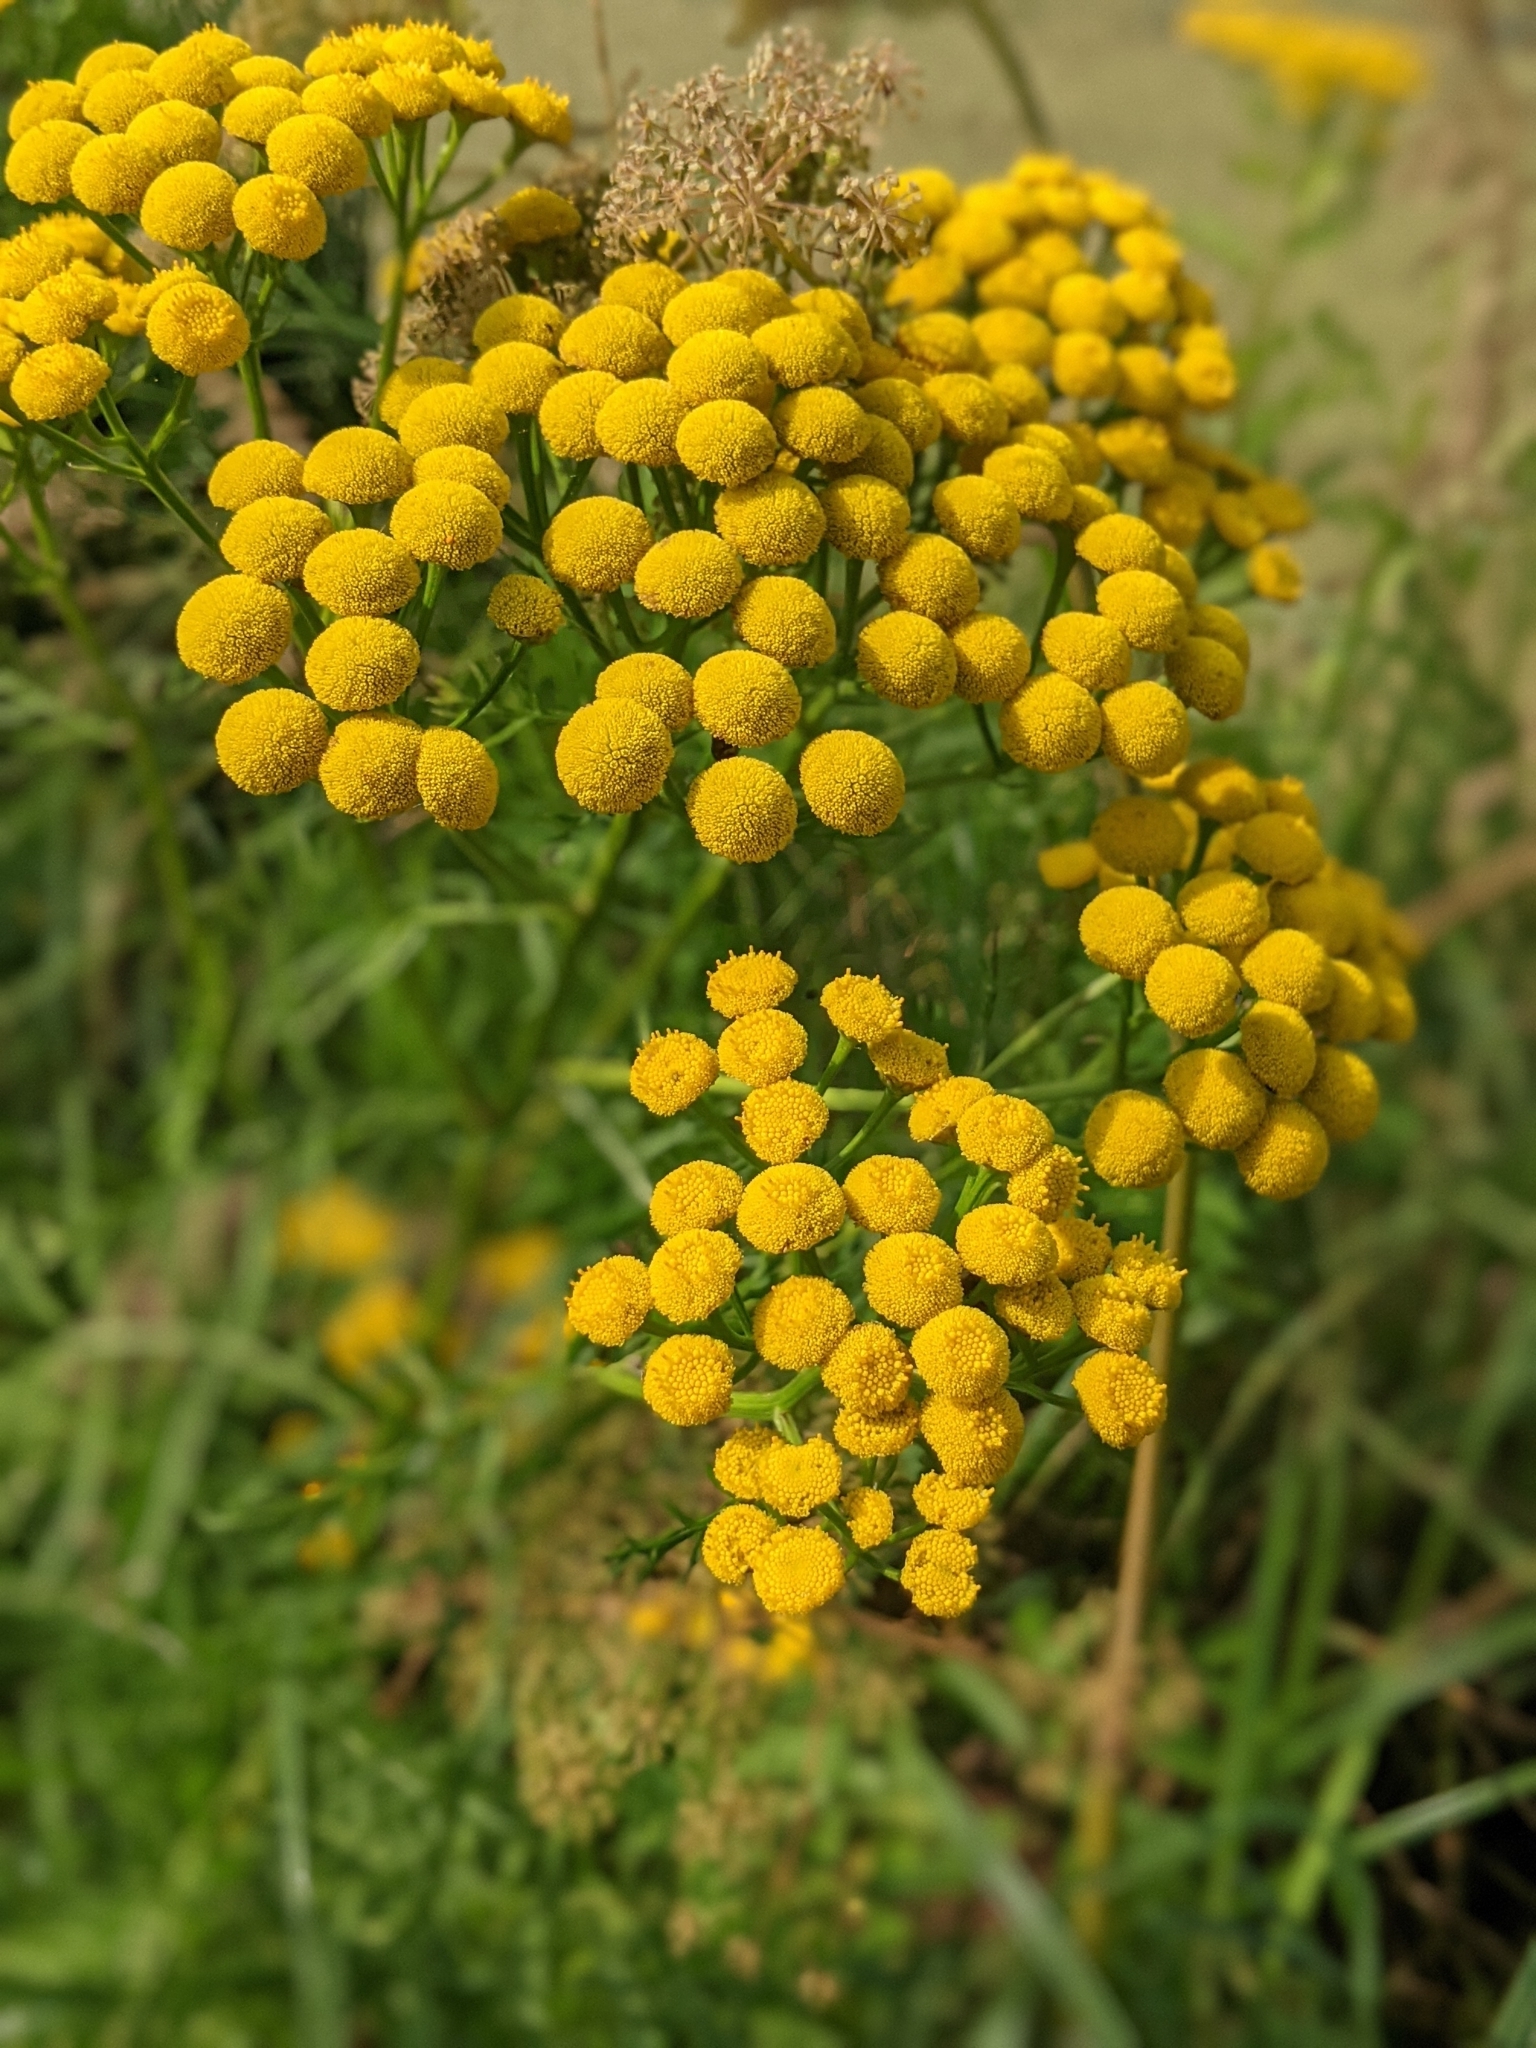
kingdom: Plantae
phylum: Tracheophyta
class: Magnoliopsida
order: Asterales
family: Asteraceae
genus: Tanacetum
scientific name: Tanacetum vulgare
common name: Common tansy
